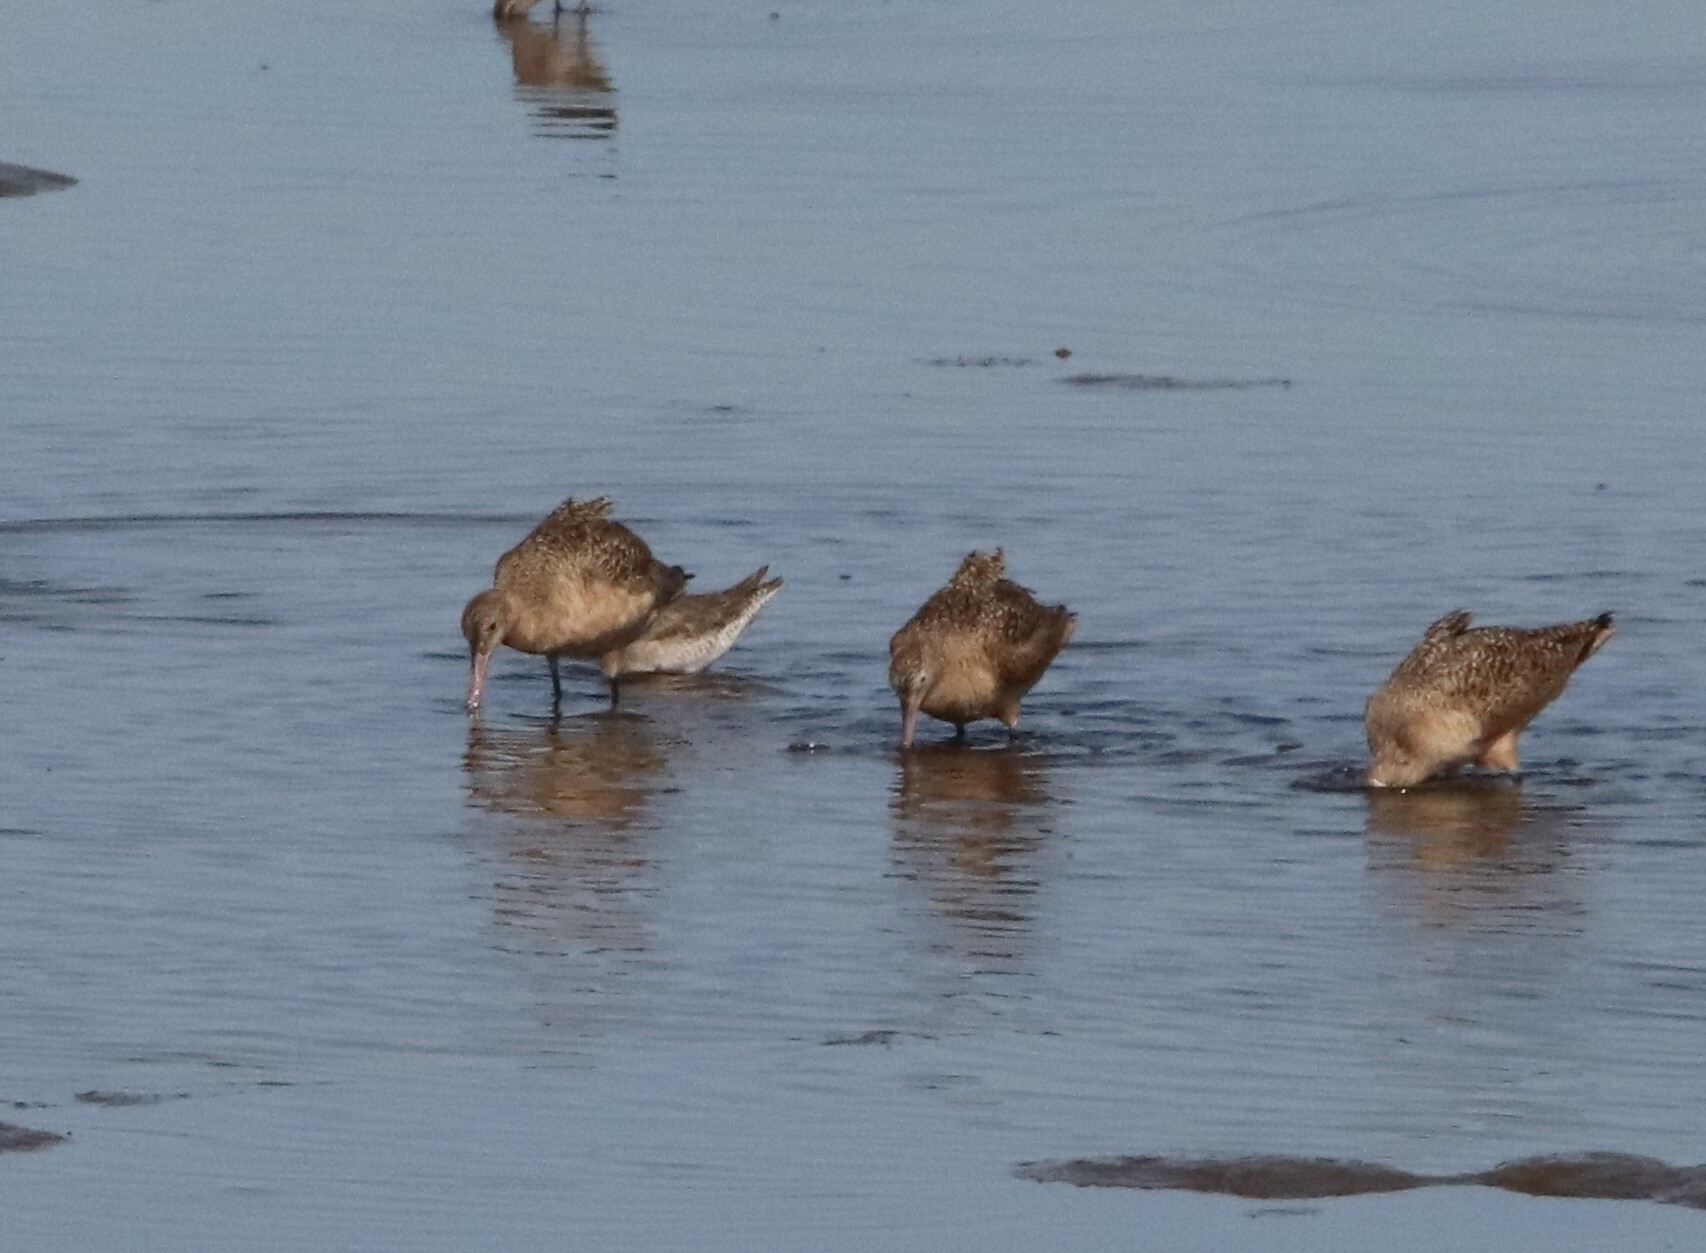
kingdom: Animalia
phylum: Chordata
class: Aves
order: Charadriiformes
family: Scolopacidae
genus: Limosa
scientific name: Limosa fedoa
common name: Marbled godwit
